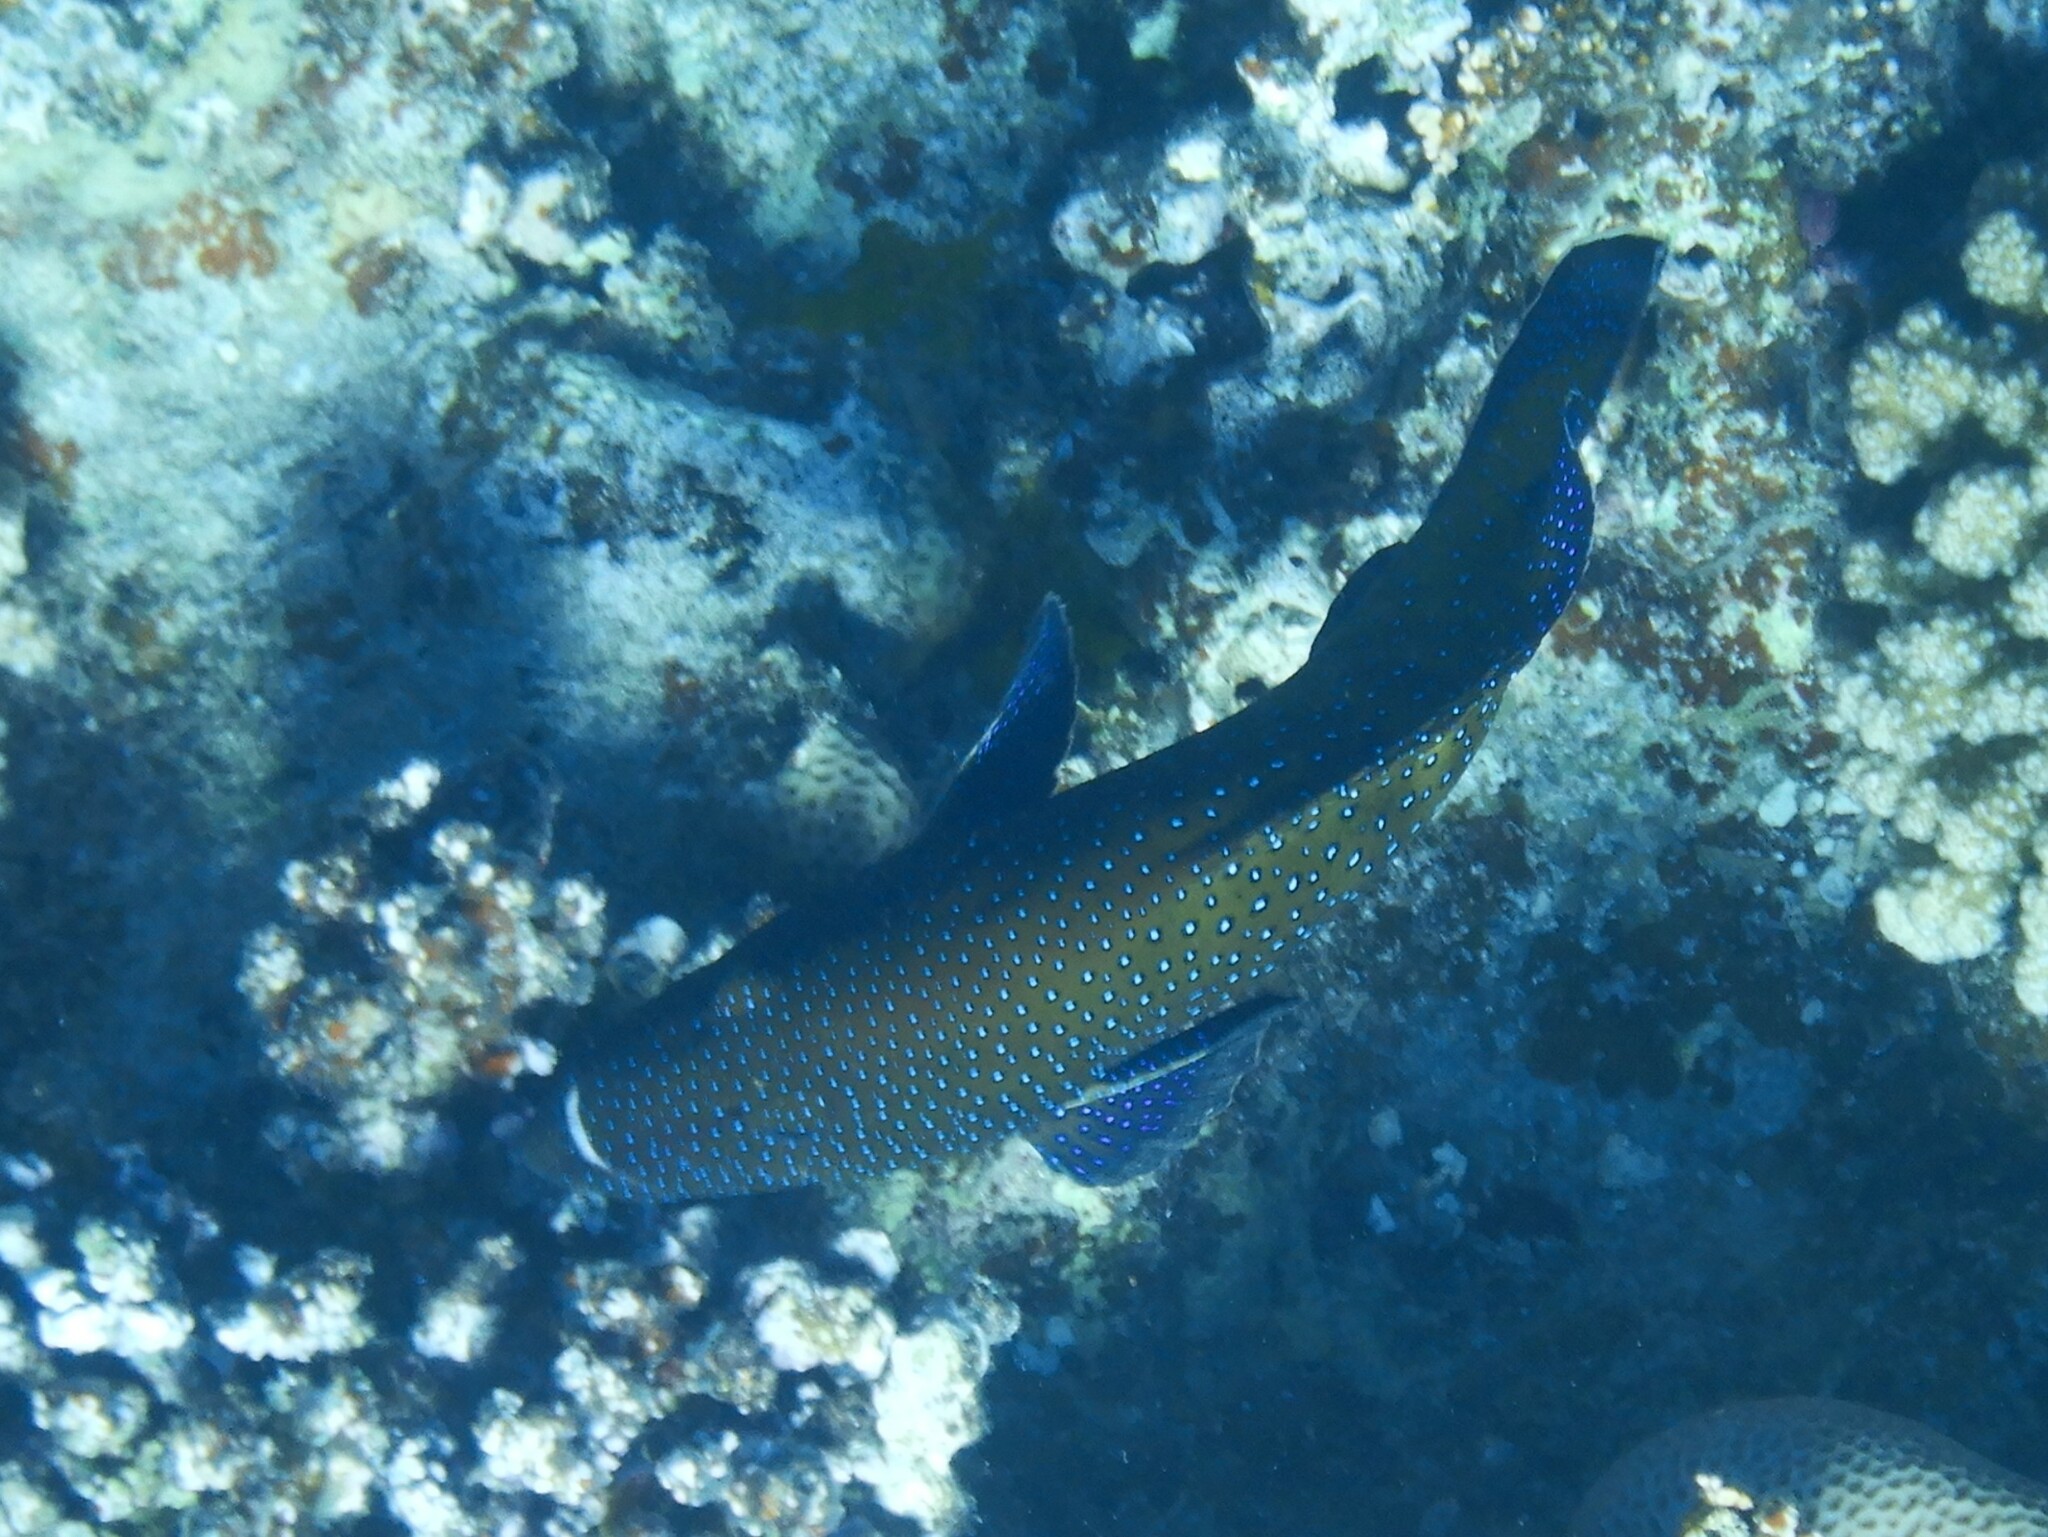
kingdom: Animalia
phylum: Chordata
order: Perciformes
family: Serranidae
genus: Cephalopholis
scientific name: Cephalopholis argus
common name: Peacock grouper
